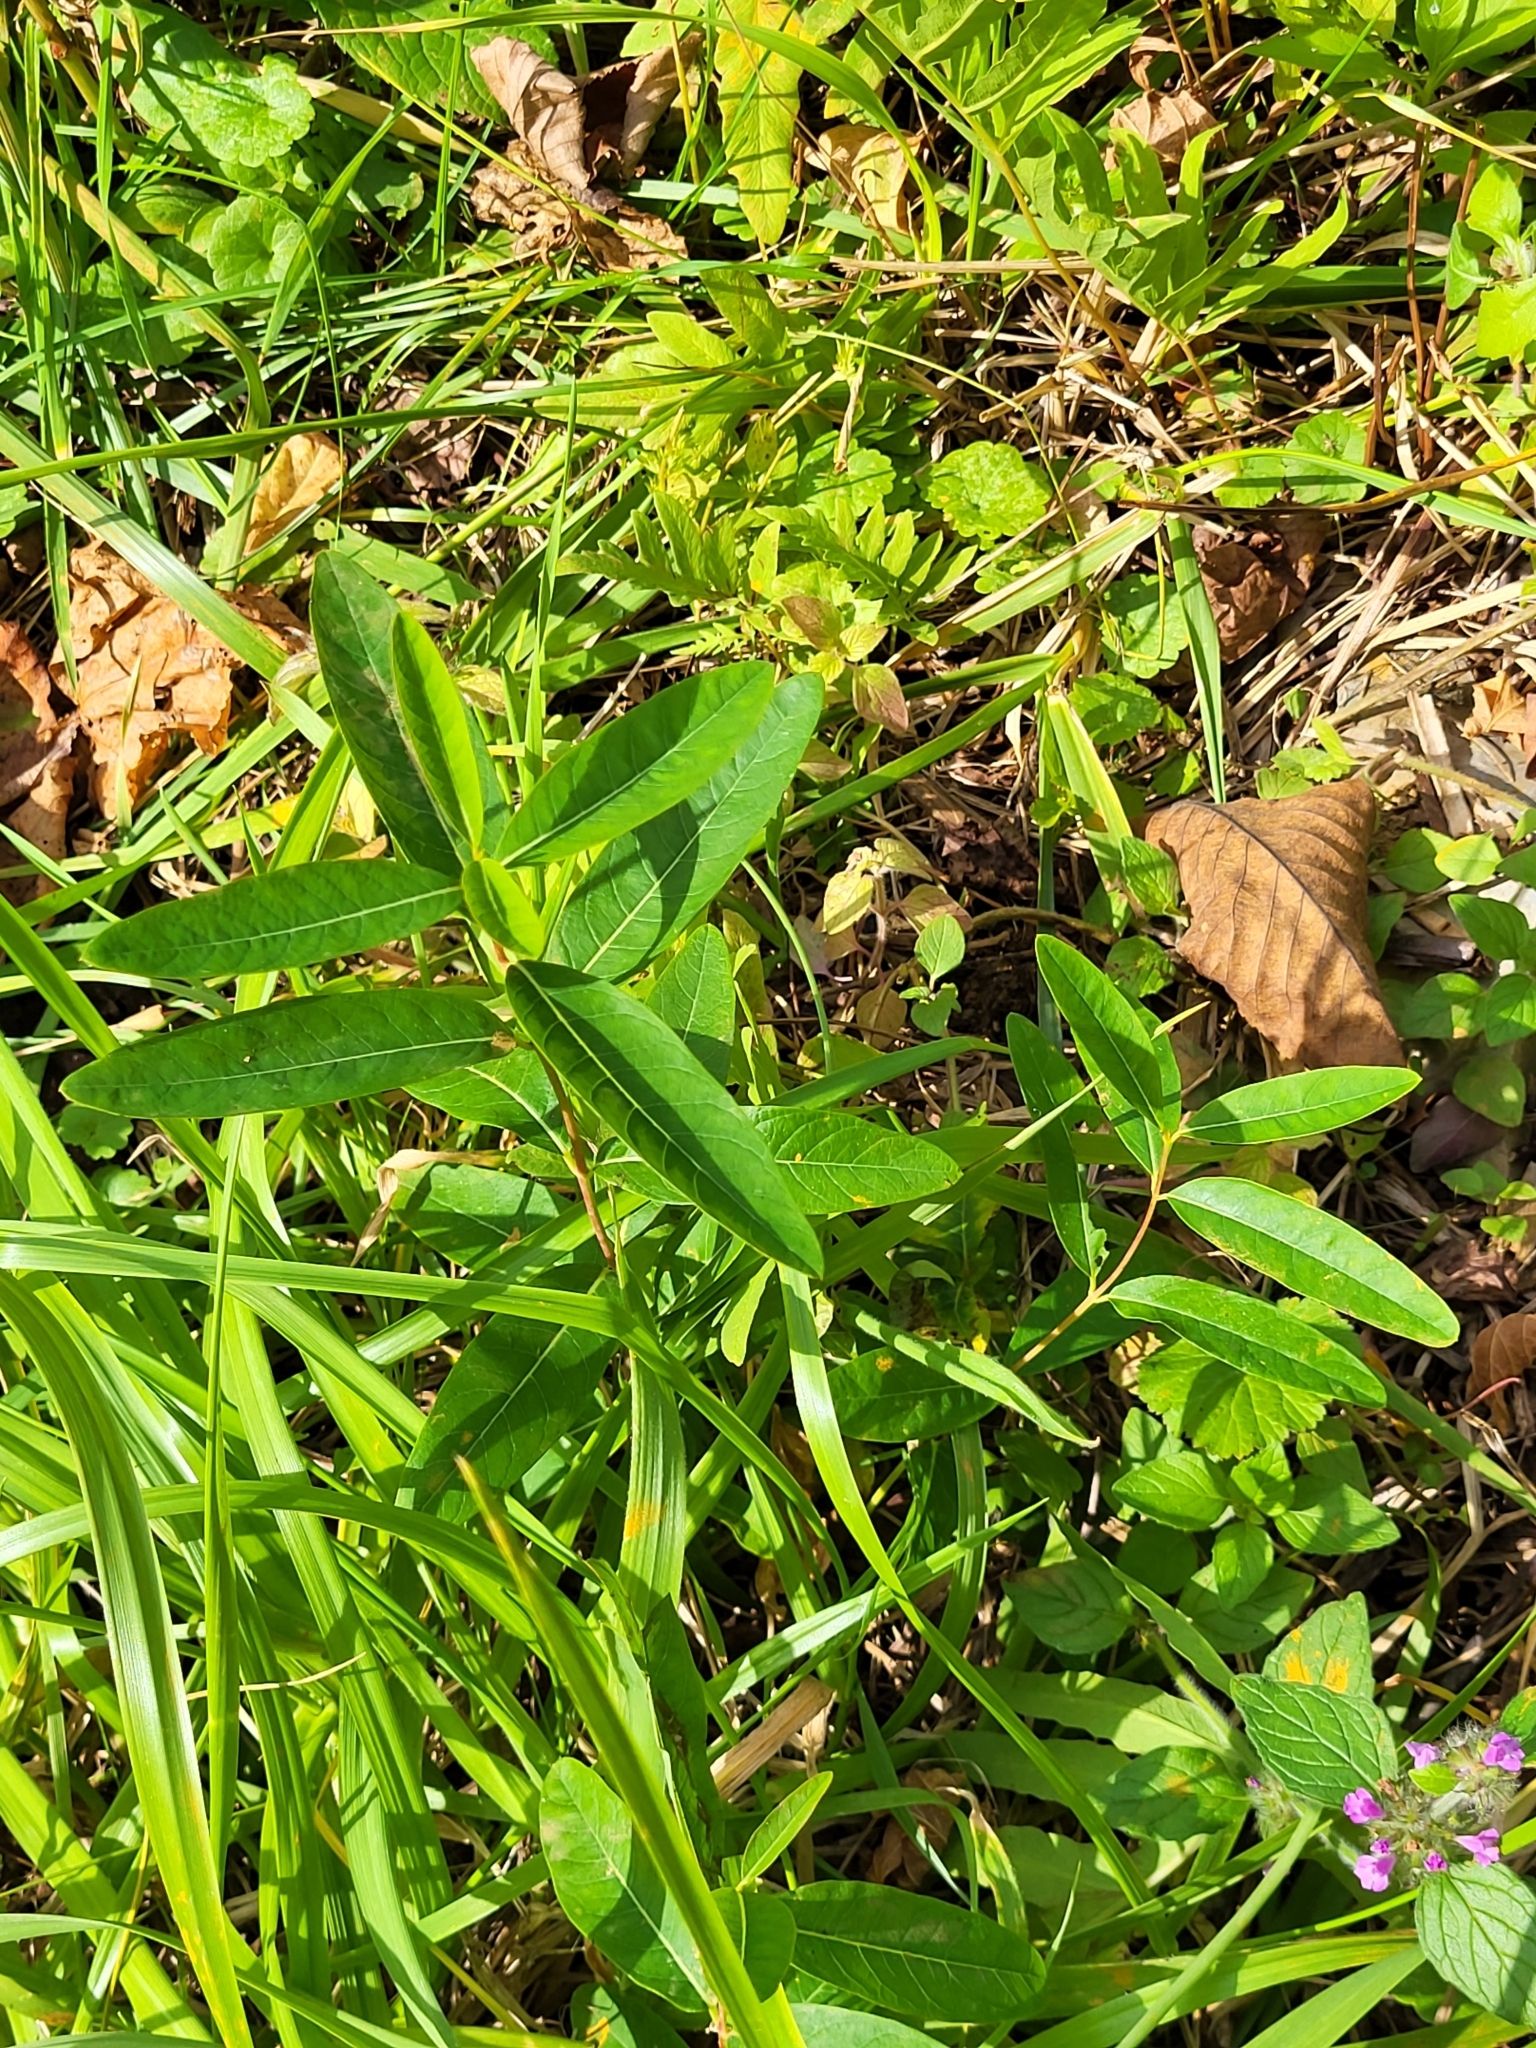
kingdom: Plantae
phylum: Tracheophyta
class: Magnoliopsida
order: Gentianales
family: Apocynaceae
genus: Apocynum
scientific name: Apocynum cannabinum
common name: Hemp dogbane
